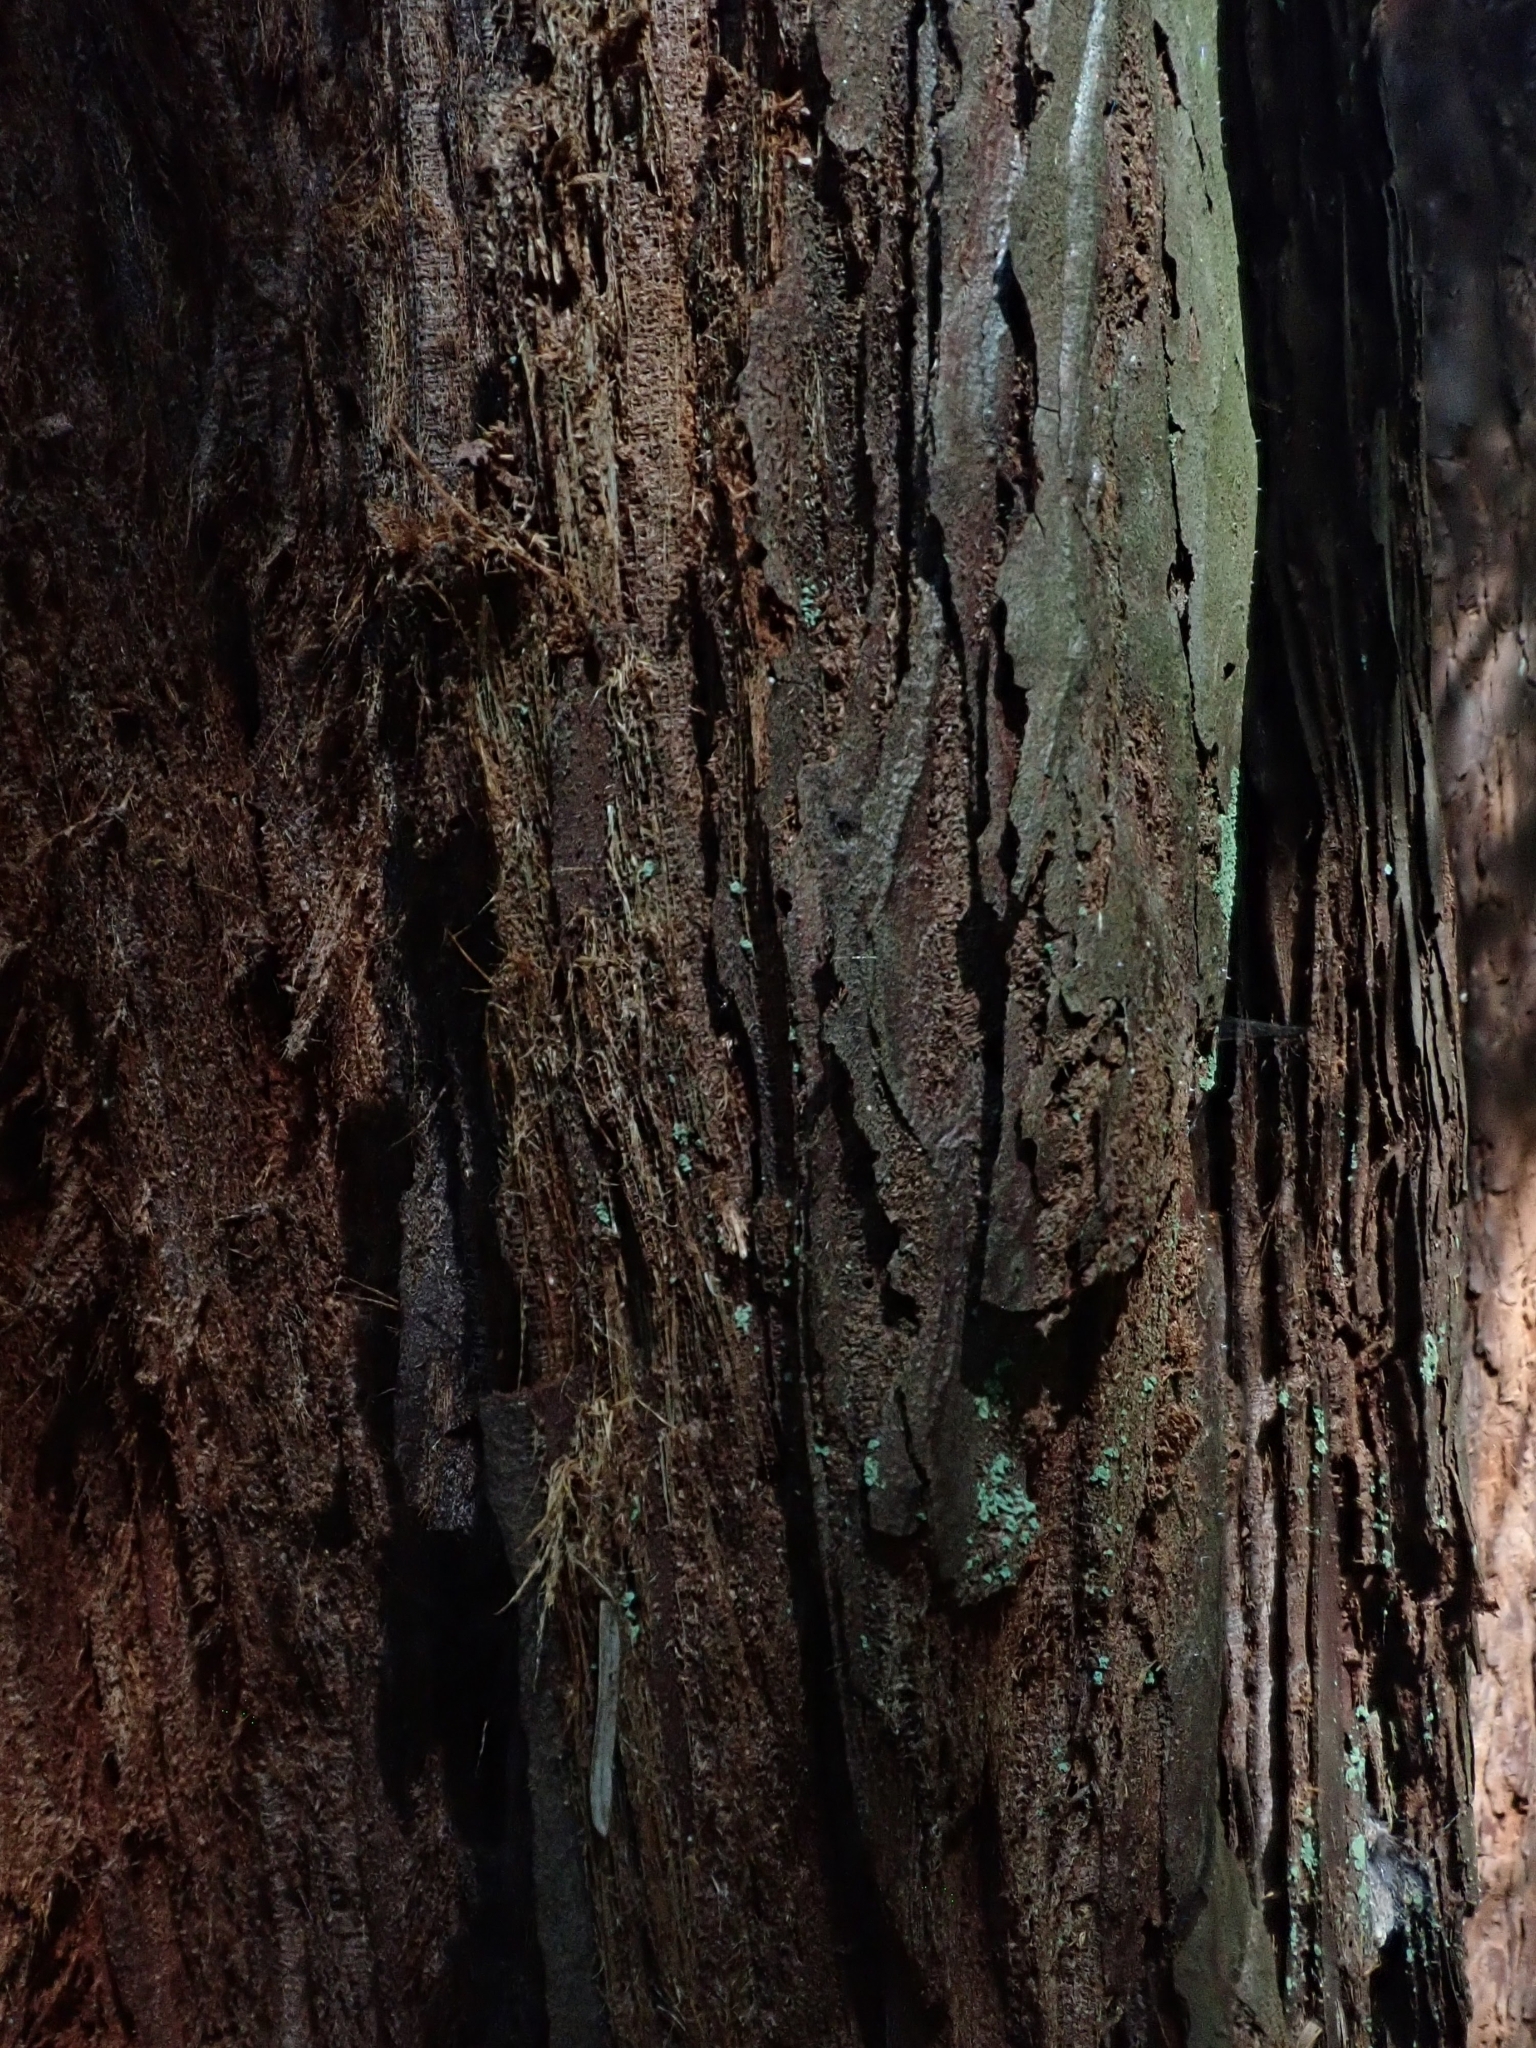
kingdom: Plantae
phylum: Tracheophyta
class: Pinopsida
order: Pinales
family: Cupressaceae
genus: Sequoia
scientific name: Sequoia sempervirens
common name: Coast redwood
